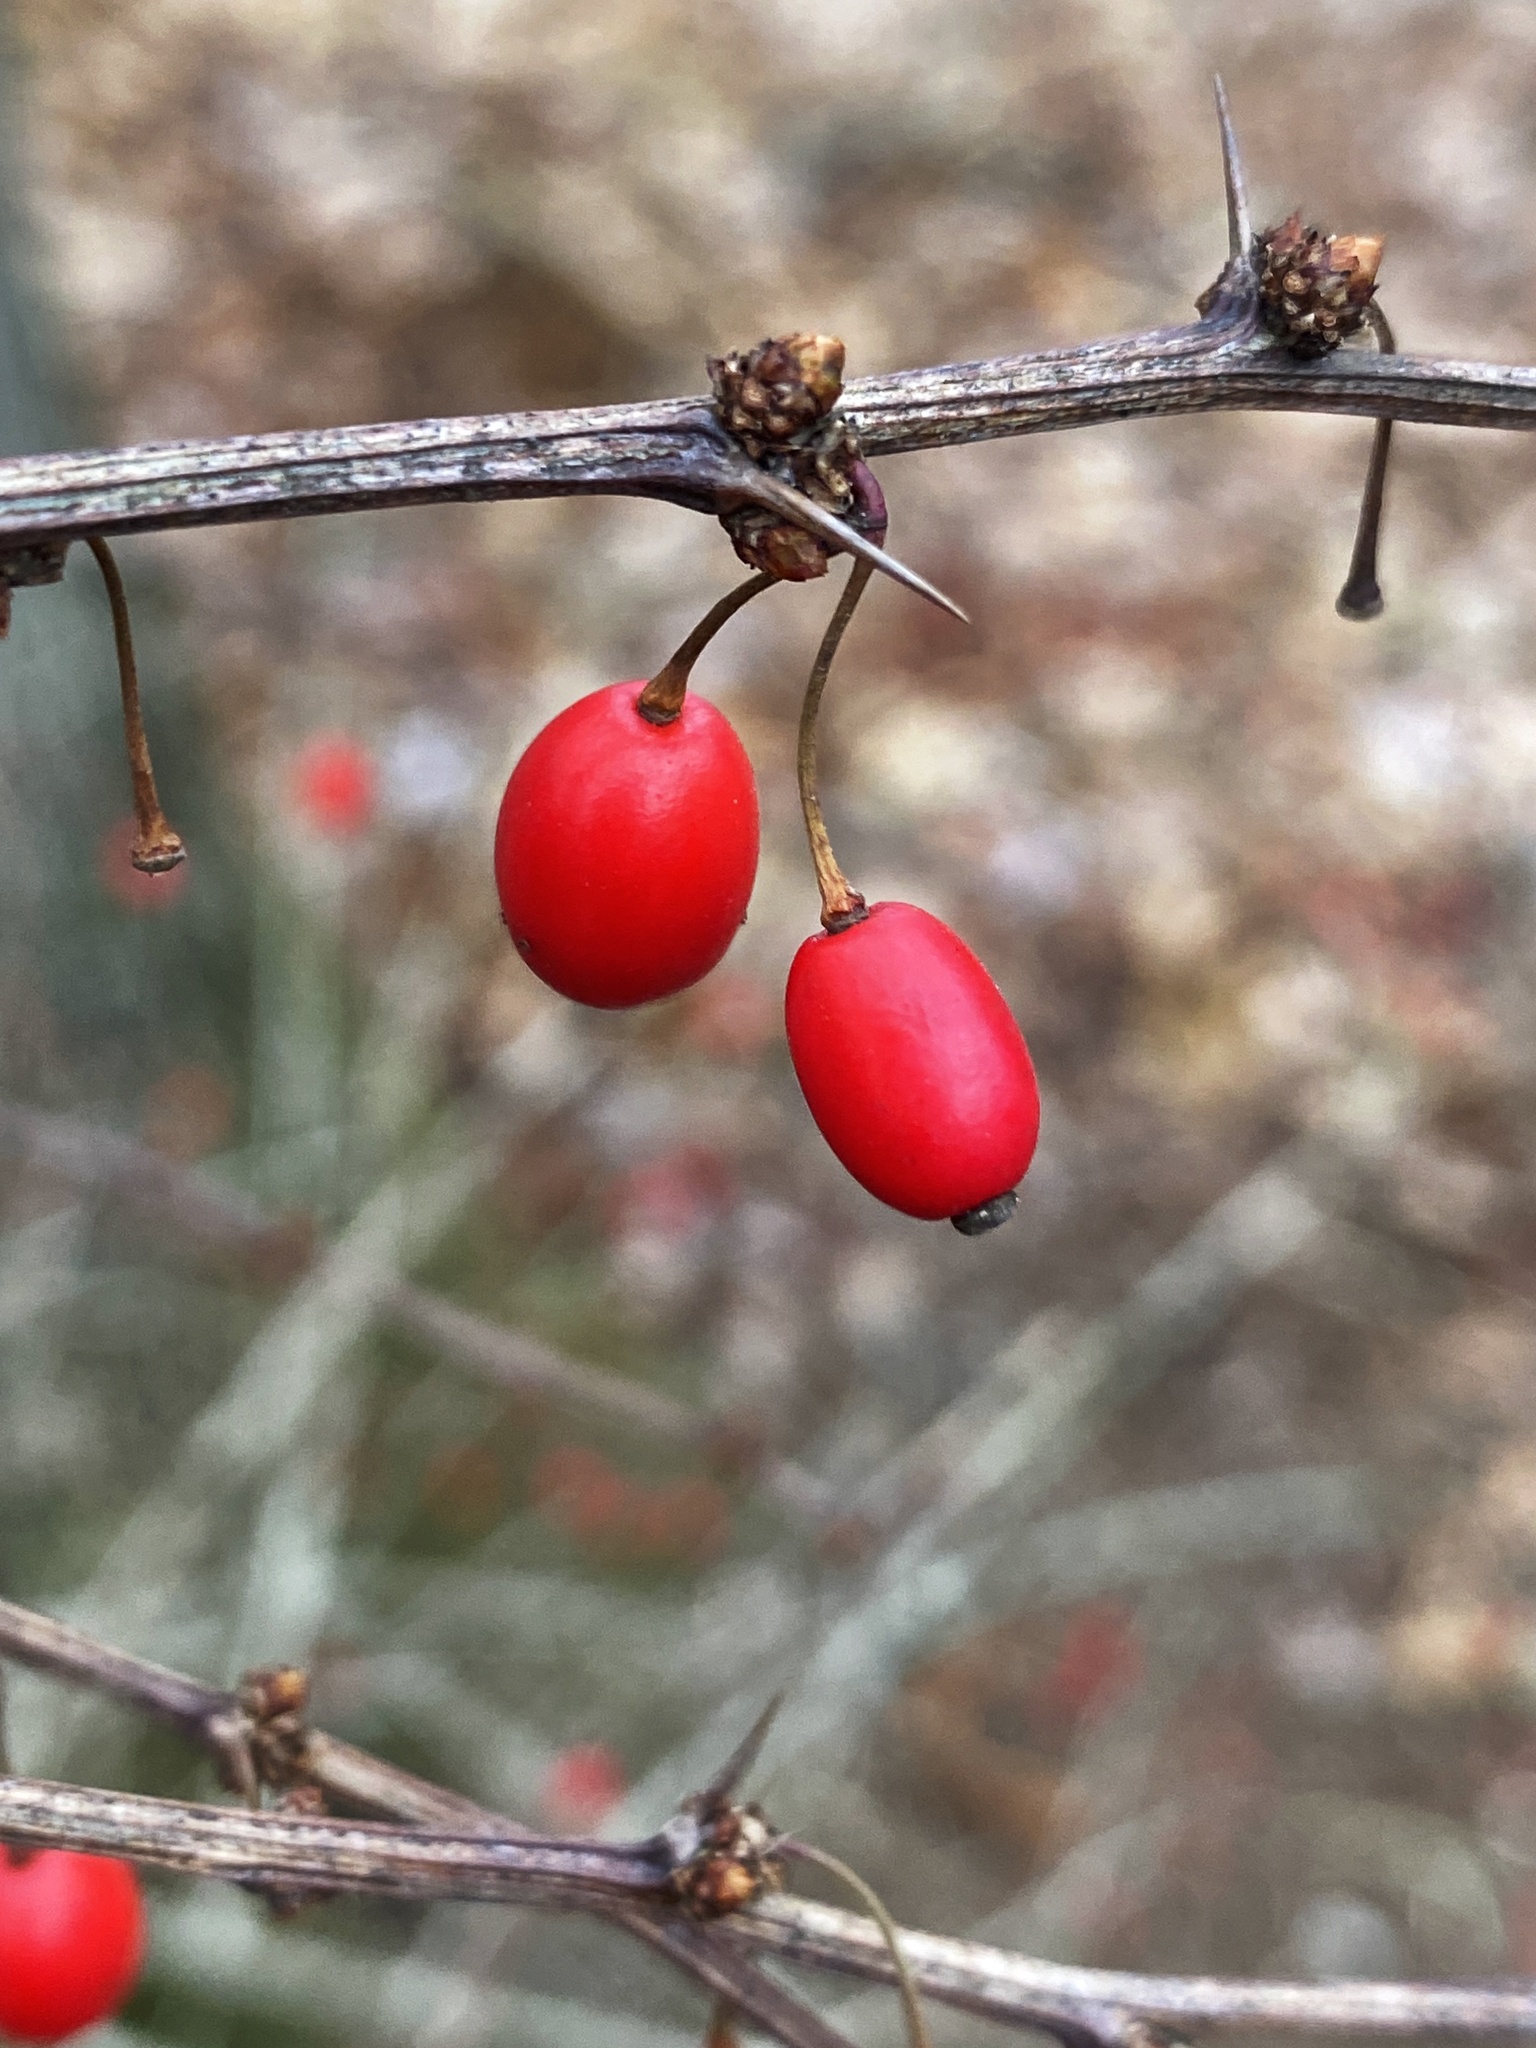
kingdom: Plantae
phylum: Tracheophyta
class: Magnoliopsida
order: Ranunculales
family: Berberidaceae
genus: Berberis
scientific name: Berberis thunbergii
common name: Japanese barberry
